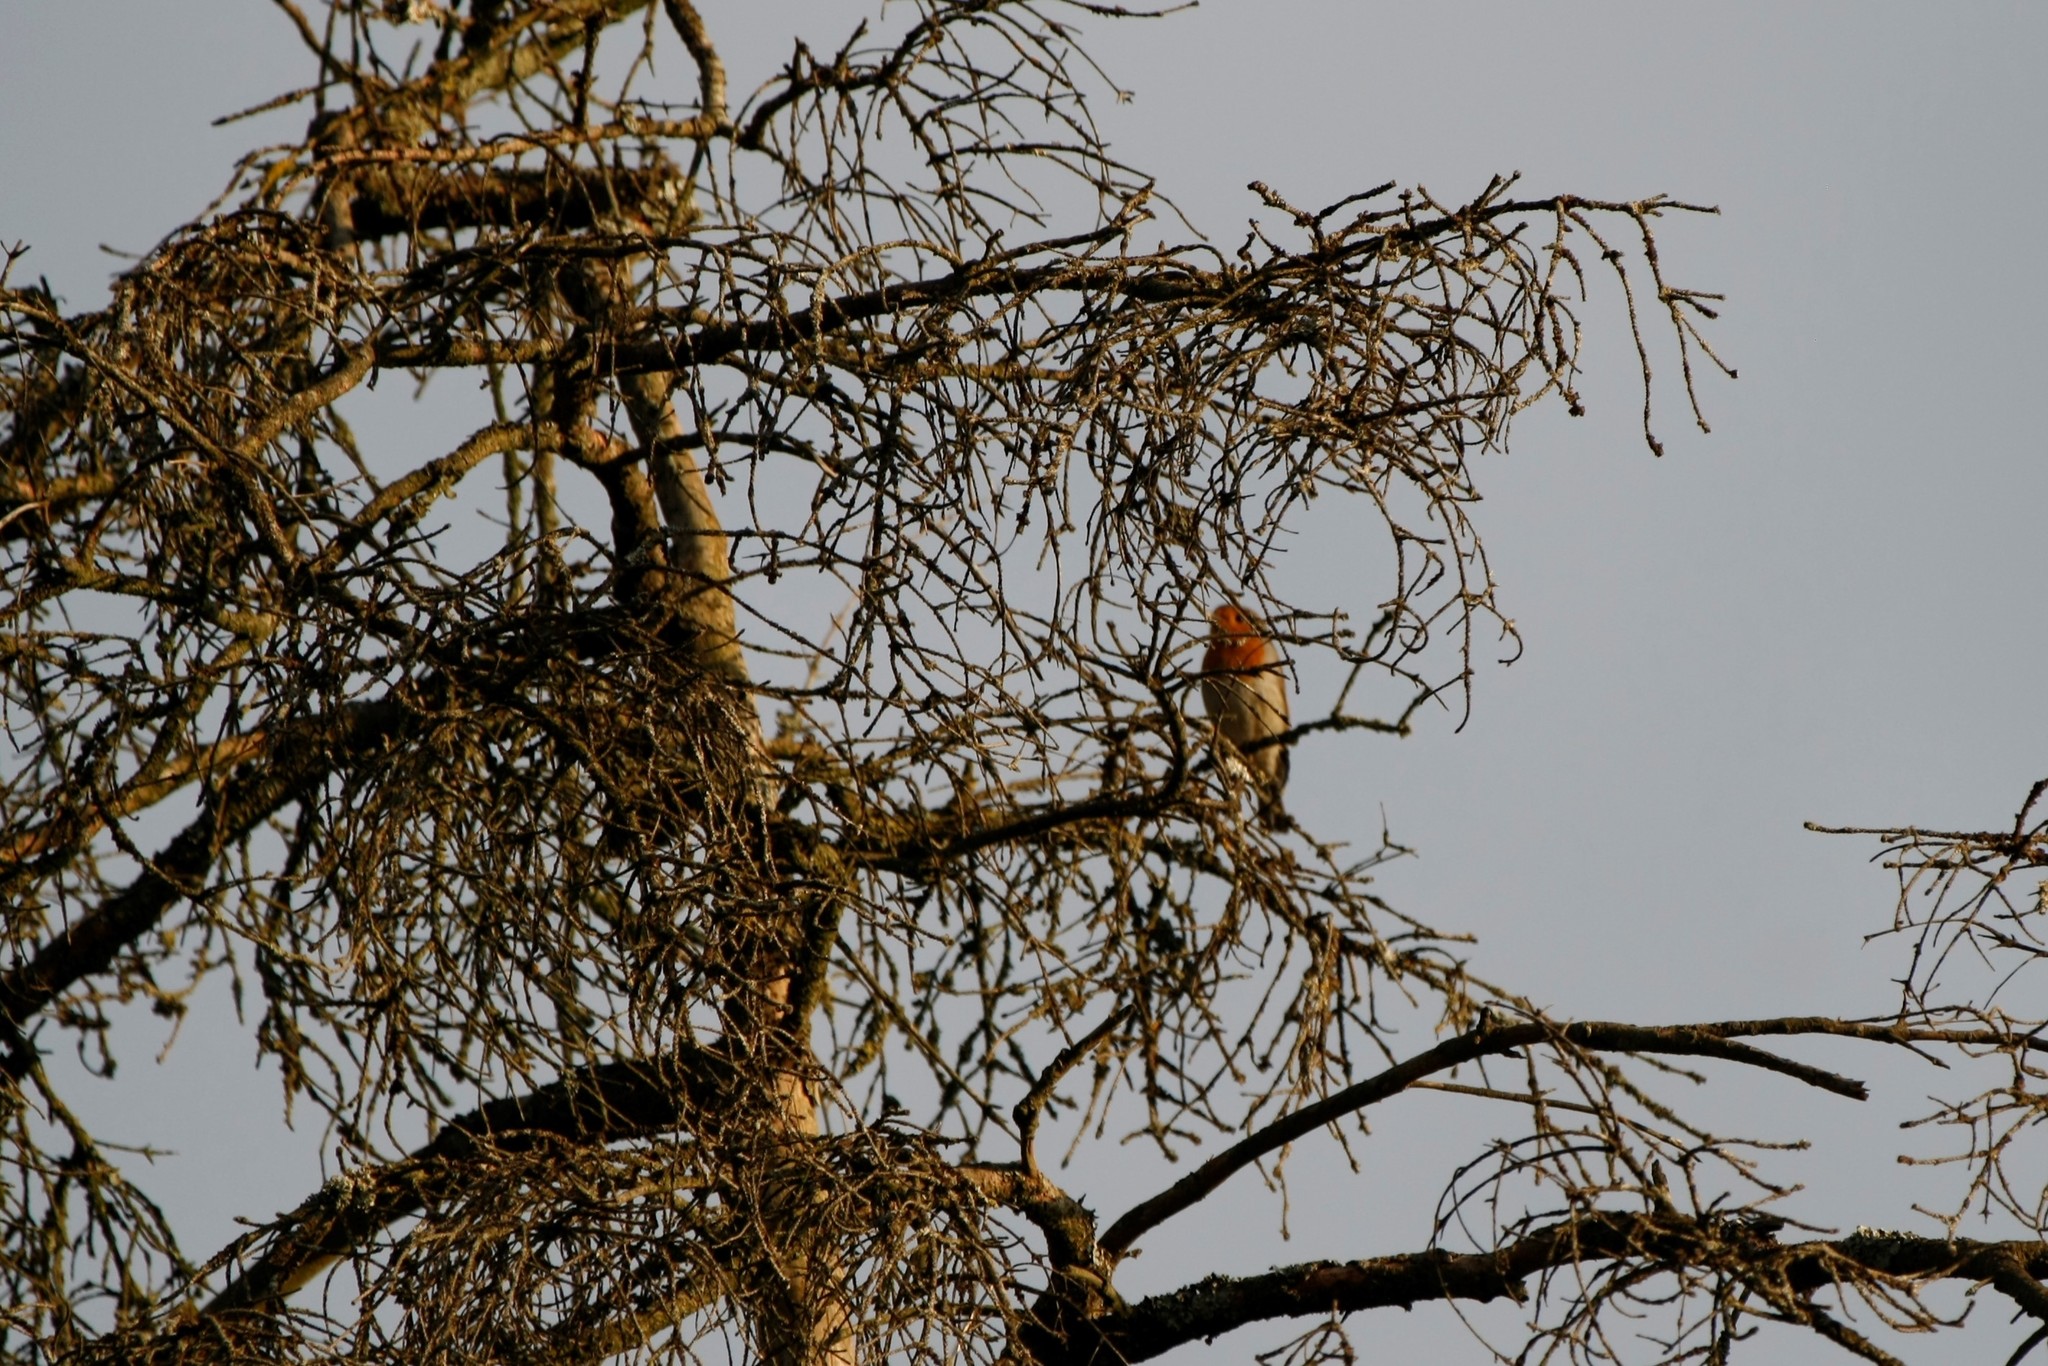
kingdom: Animalia
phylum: Chordata
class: Aves
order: Passeriformes
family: Muscicapidae
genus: Erithacus
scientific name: Erithacus rubecula
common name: European robin
